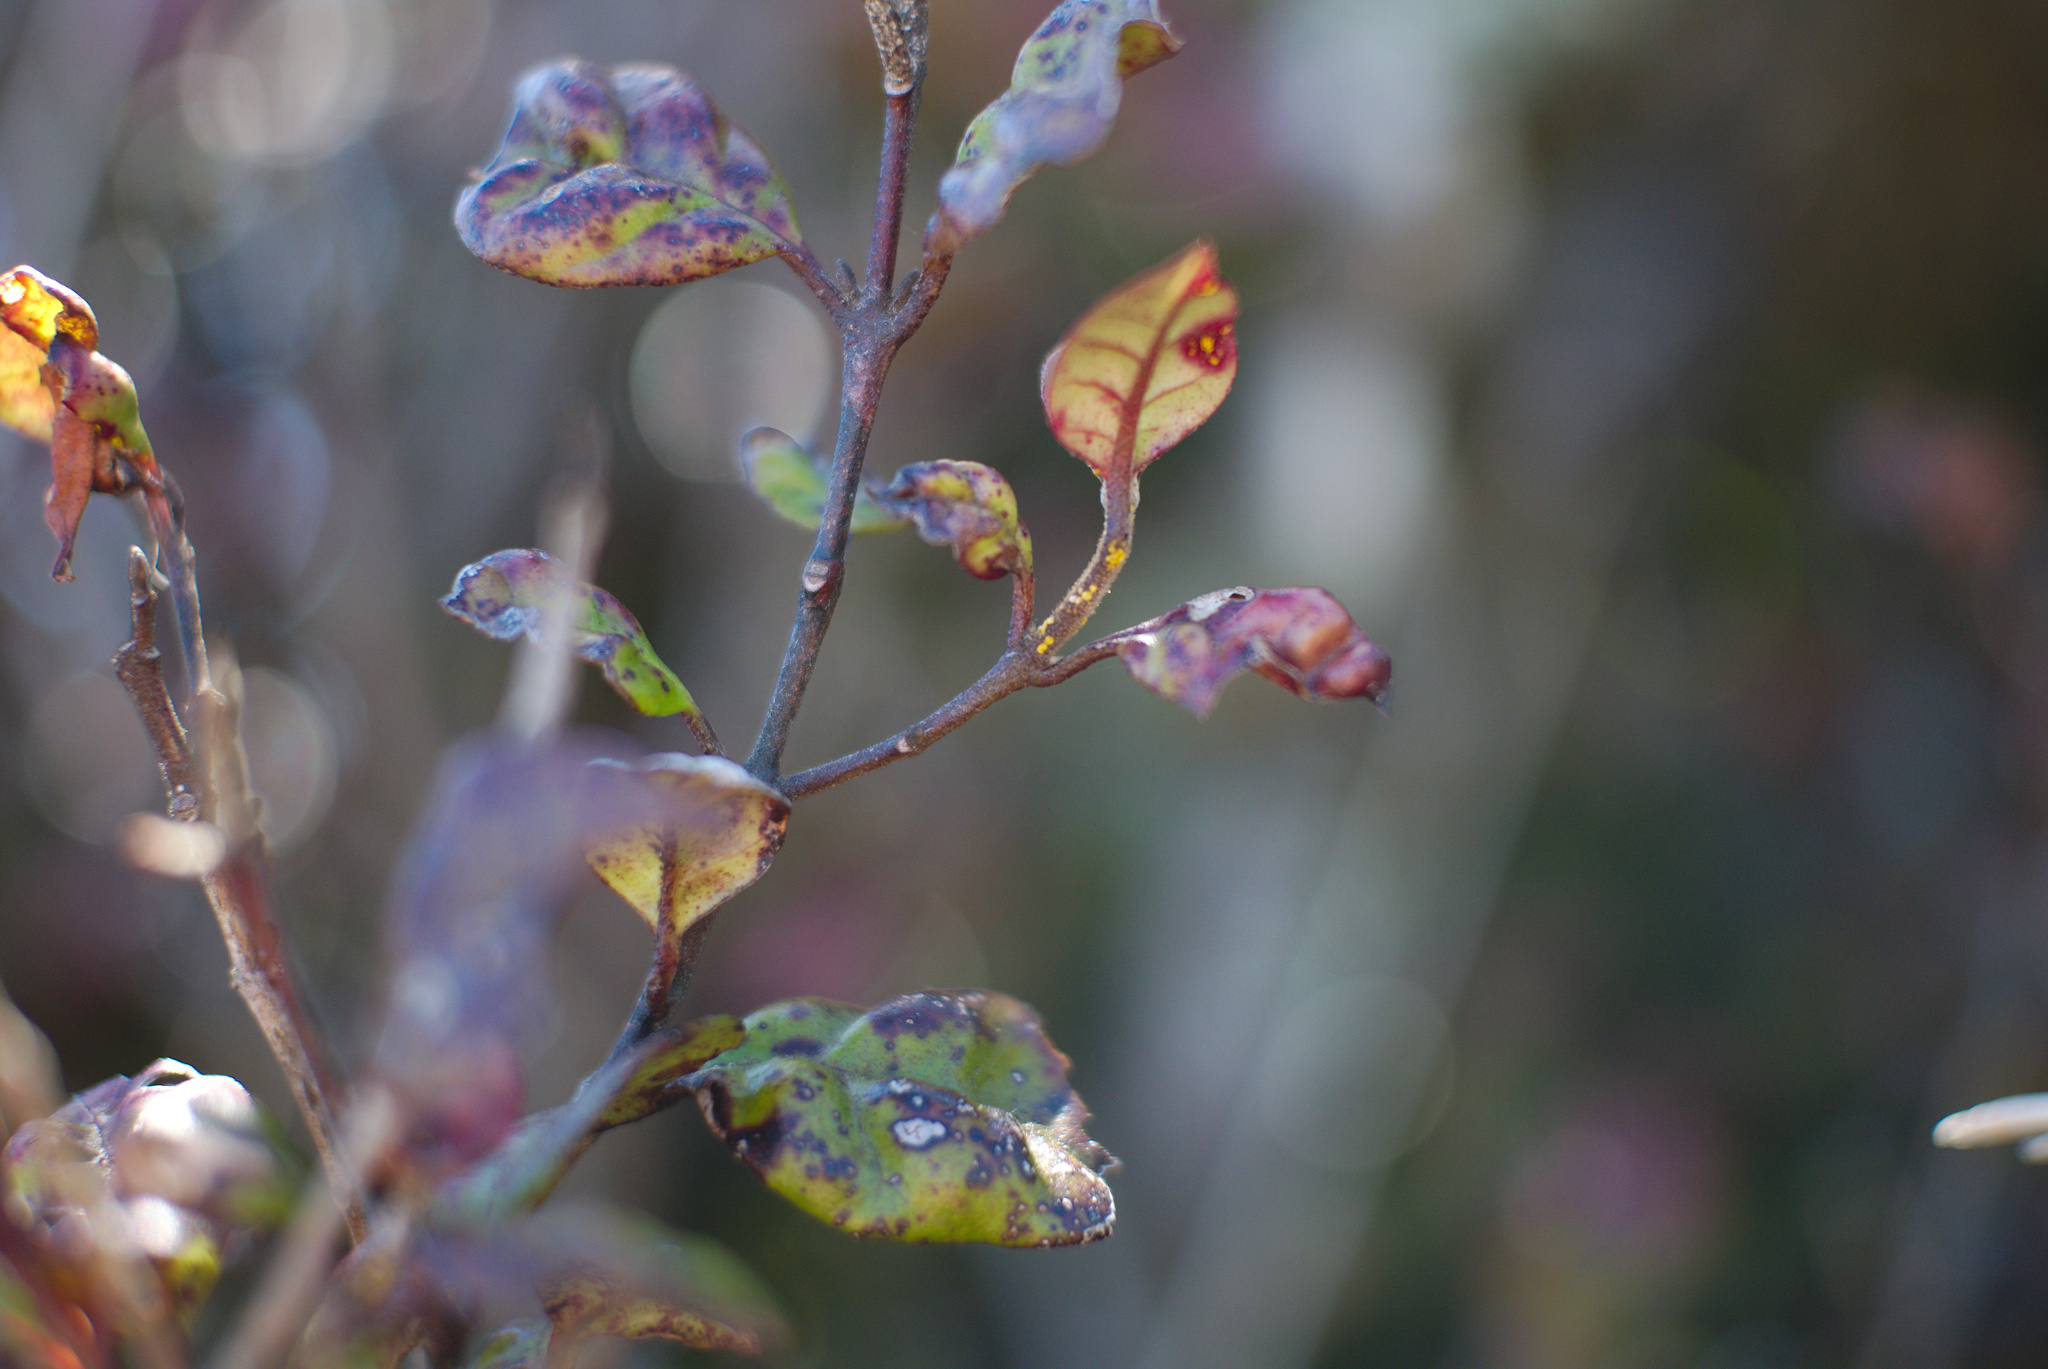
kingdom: Fungi
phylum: Basidiomycota
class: Pucciniomycetes
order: Pucciniales
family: Sphaerophragmiaceae
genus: Austropuccinia
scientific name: Austropuccinia psidii
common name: Myrtle rust
